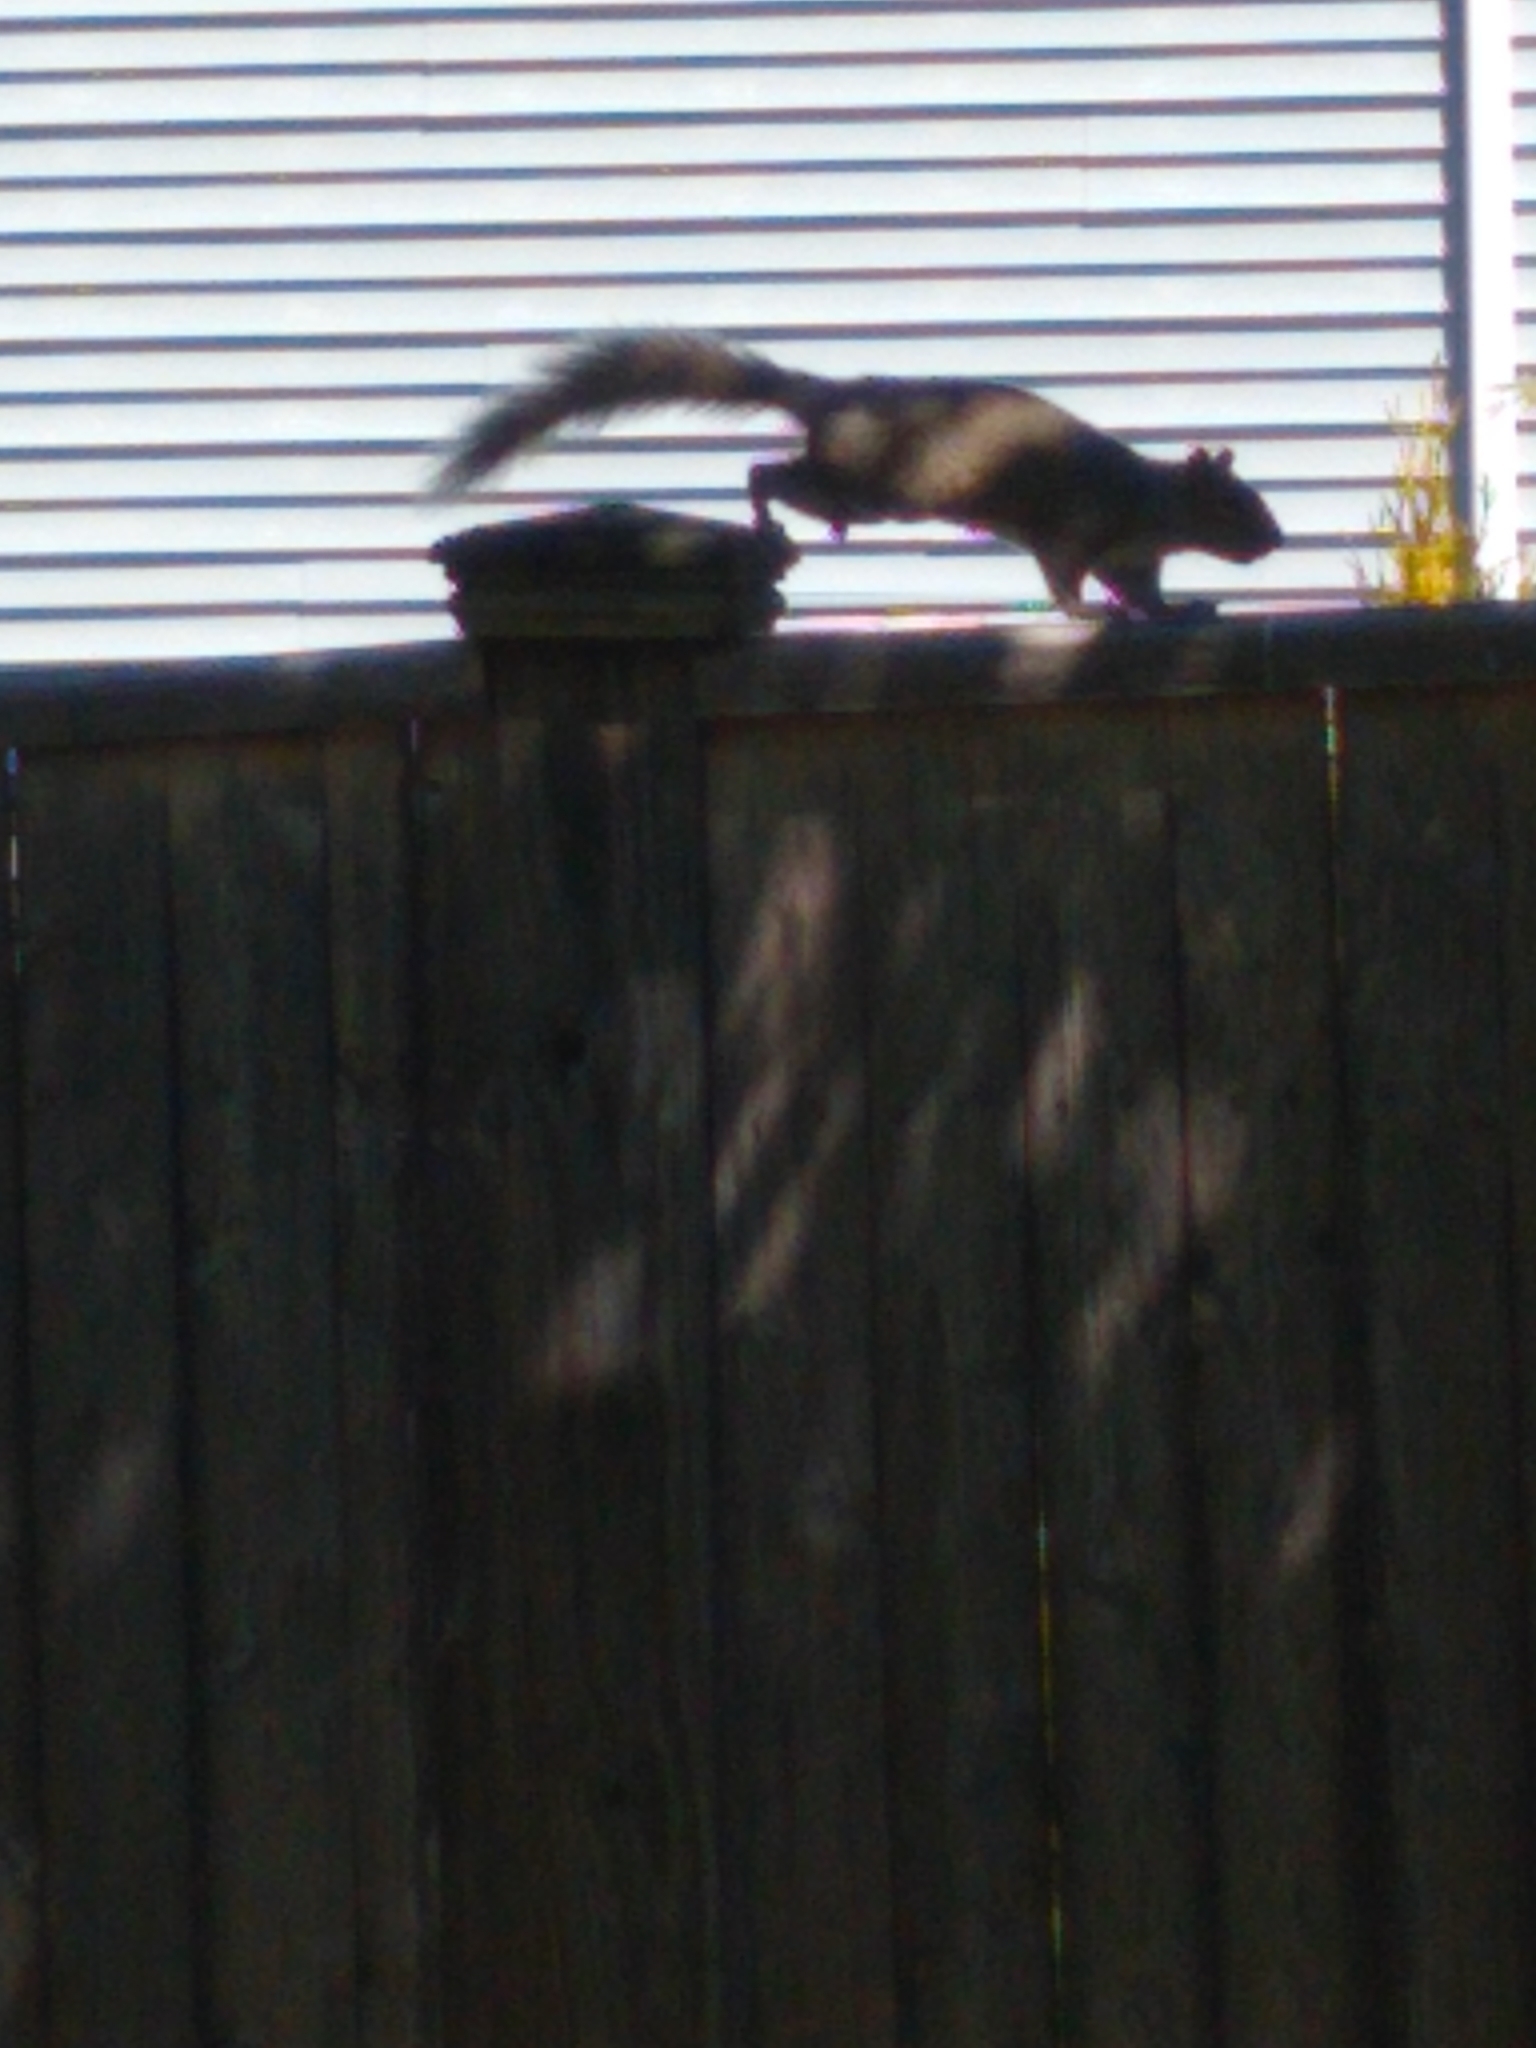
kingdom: Animalia
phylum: Chordata
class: Mammalia
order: Rodentia
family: Sciuridae
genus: Sciurus
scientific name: Sciurus carolinensis
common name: Eastern gray squirrel
